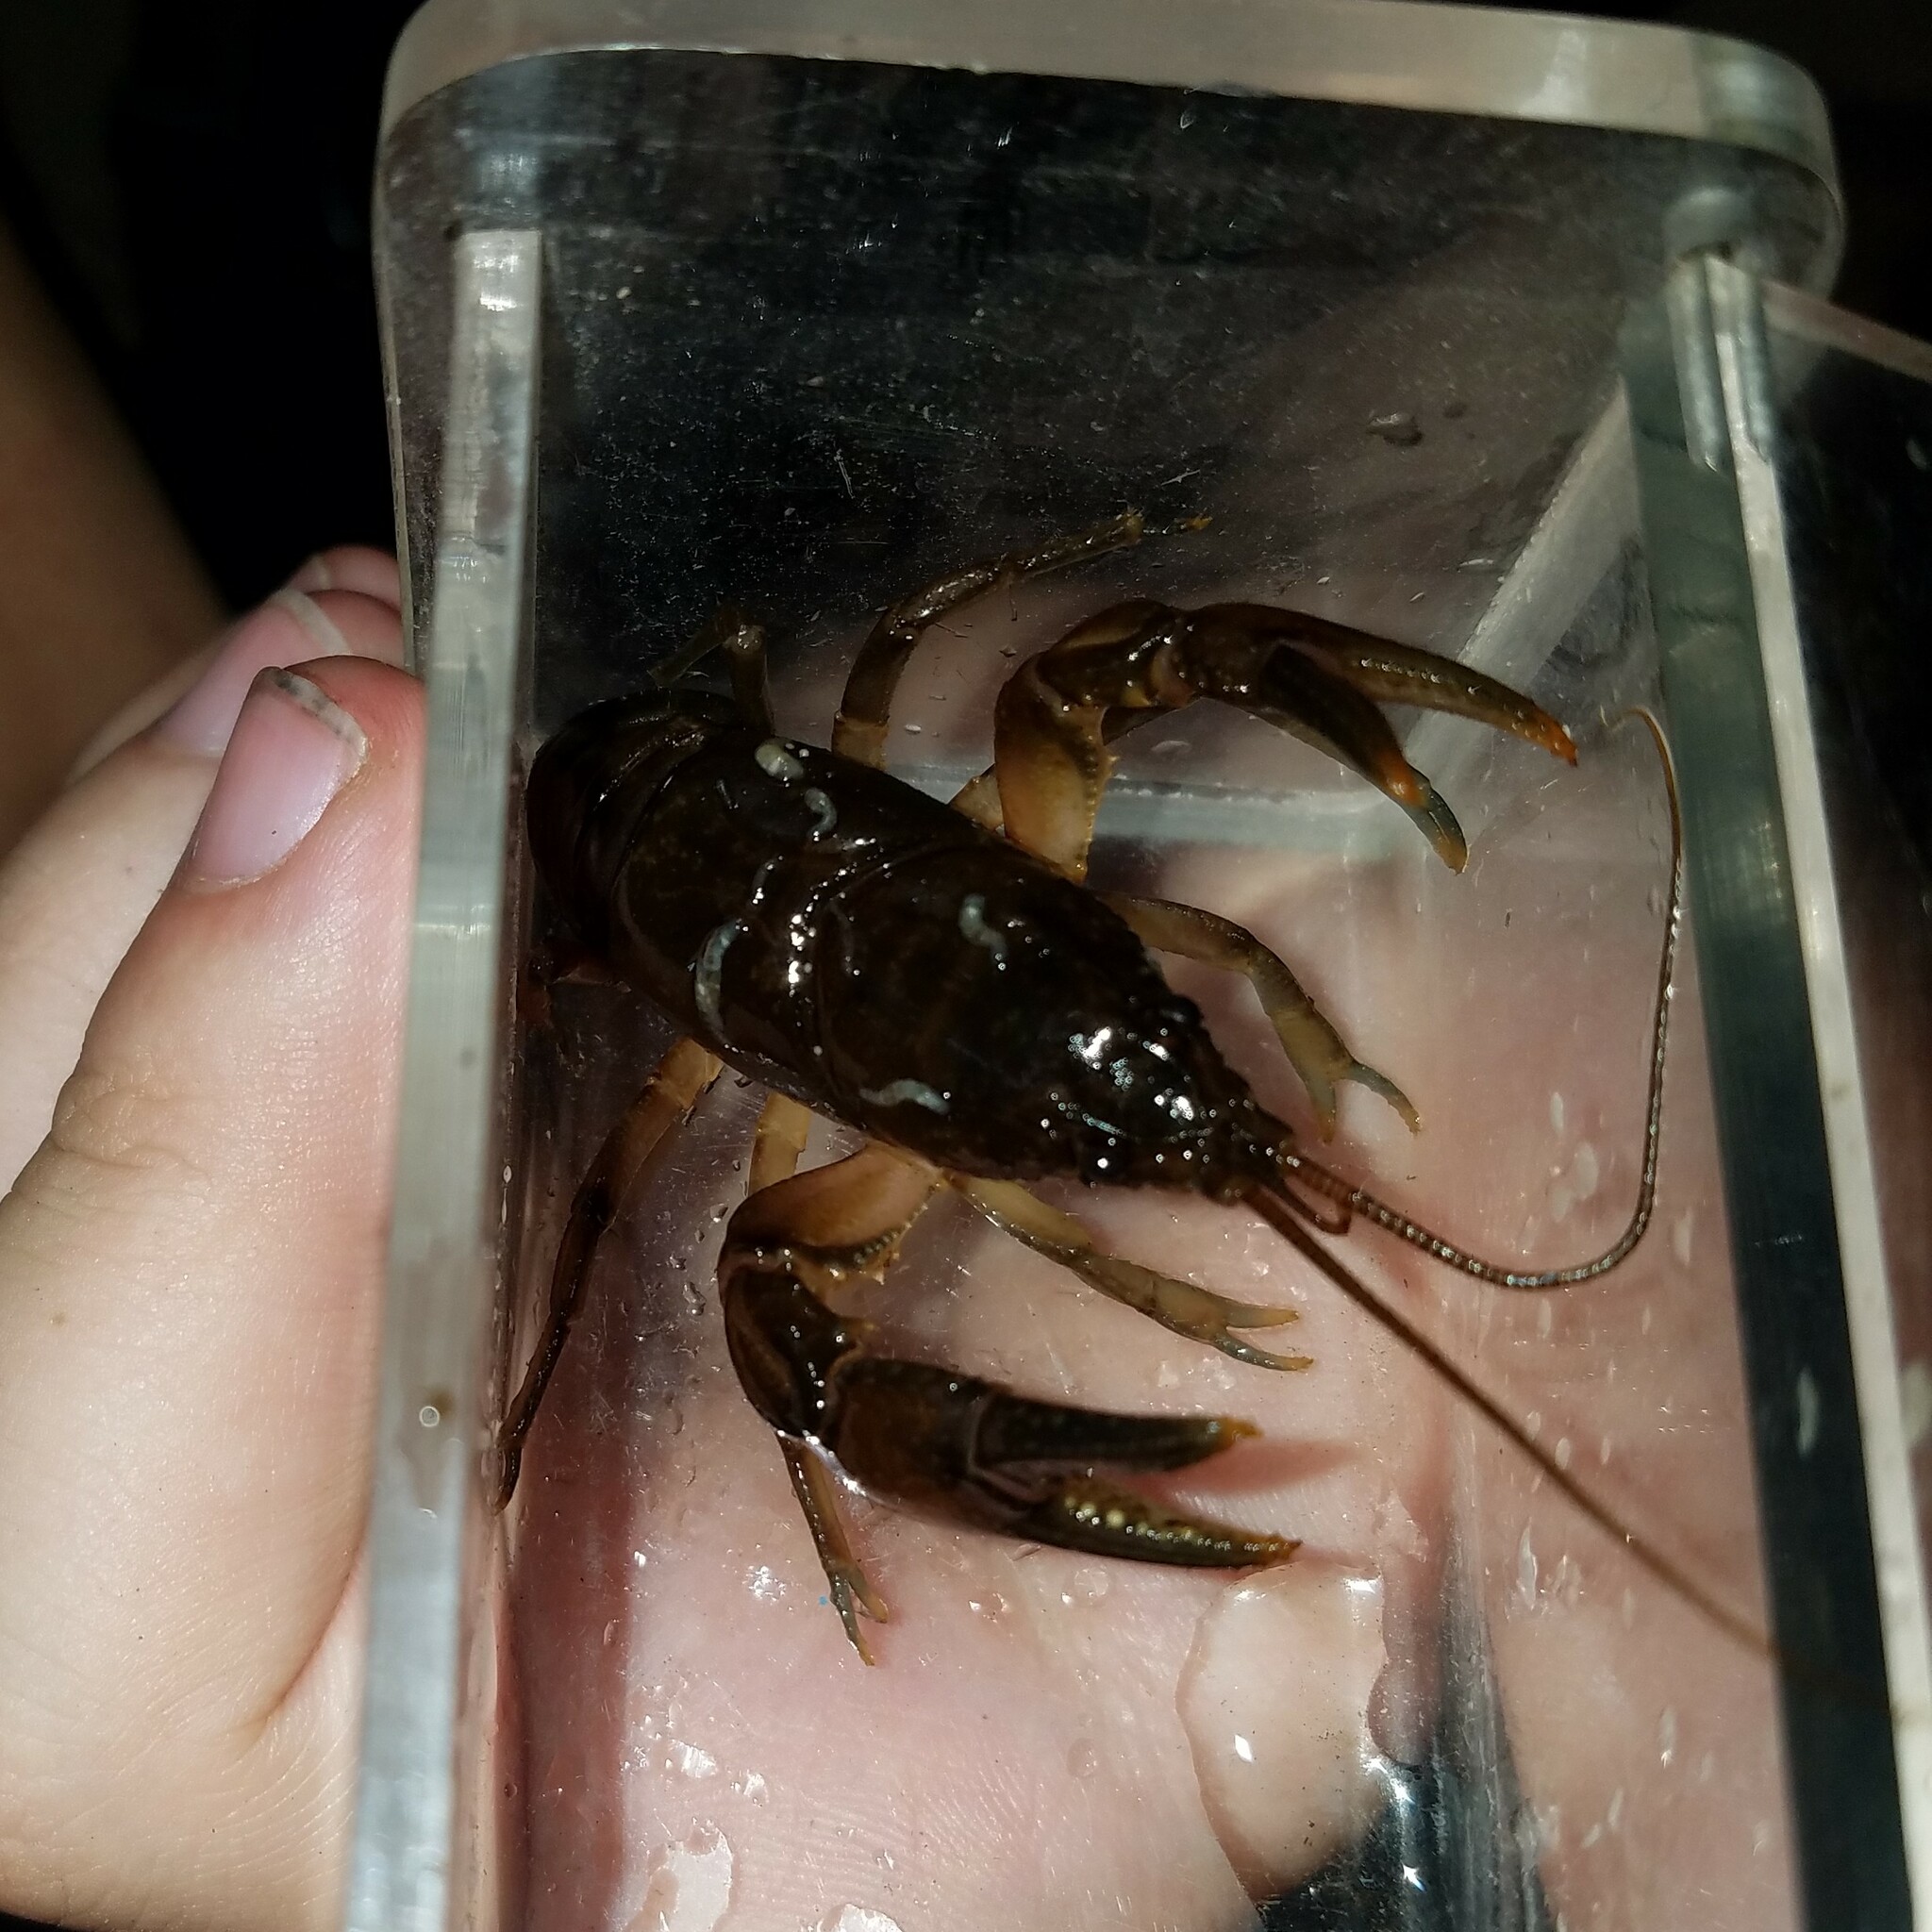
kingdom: Animalia
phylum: Arthropoda
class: Malacostraca
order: Decapoda
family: Cambaridae
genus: Cambarus
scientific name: Cambarus asperimanus
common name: Mitten crayfish
